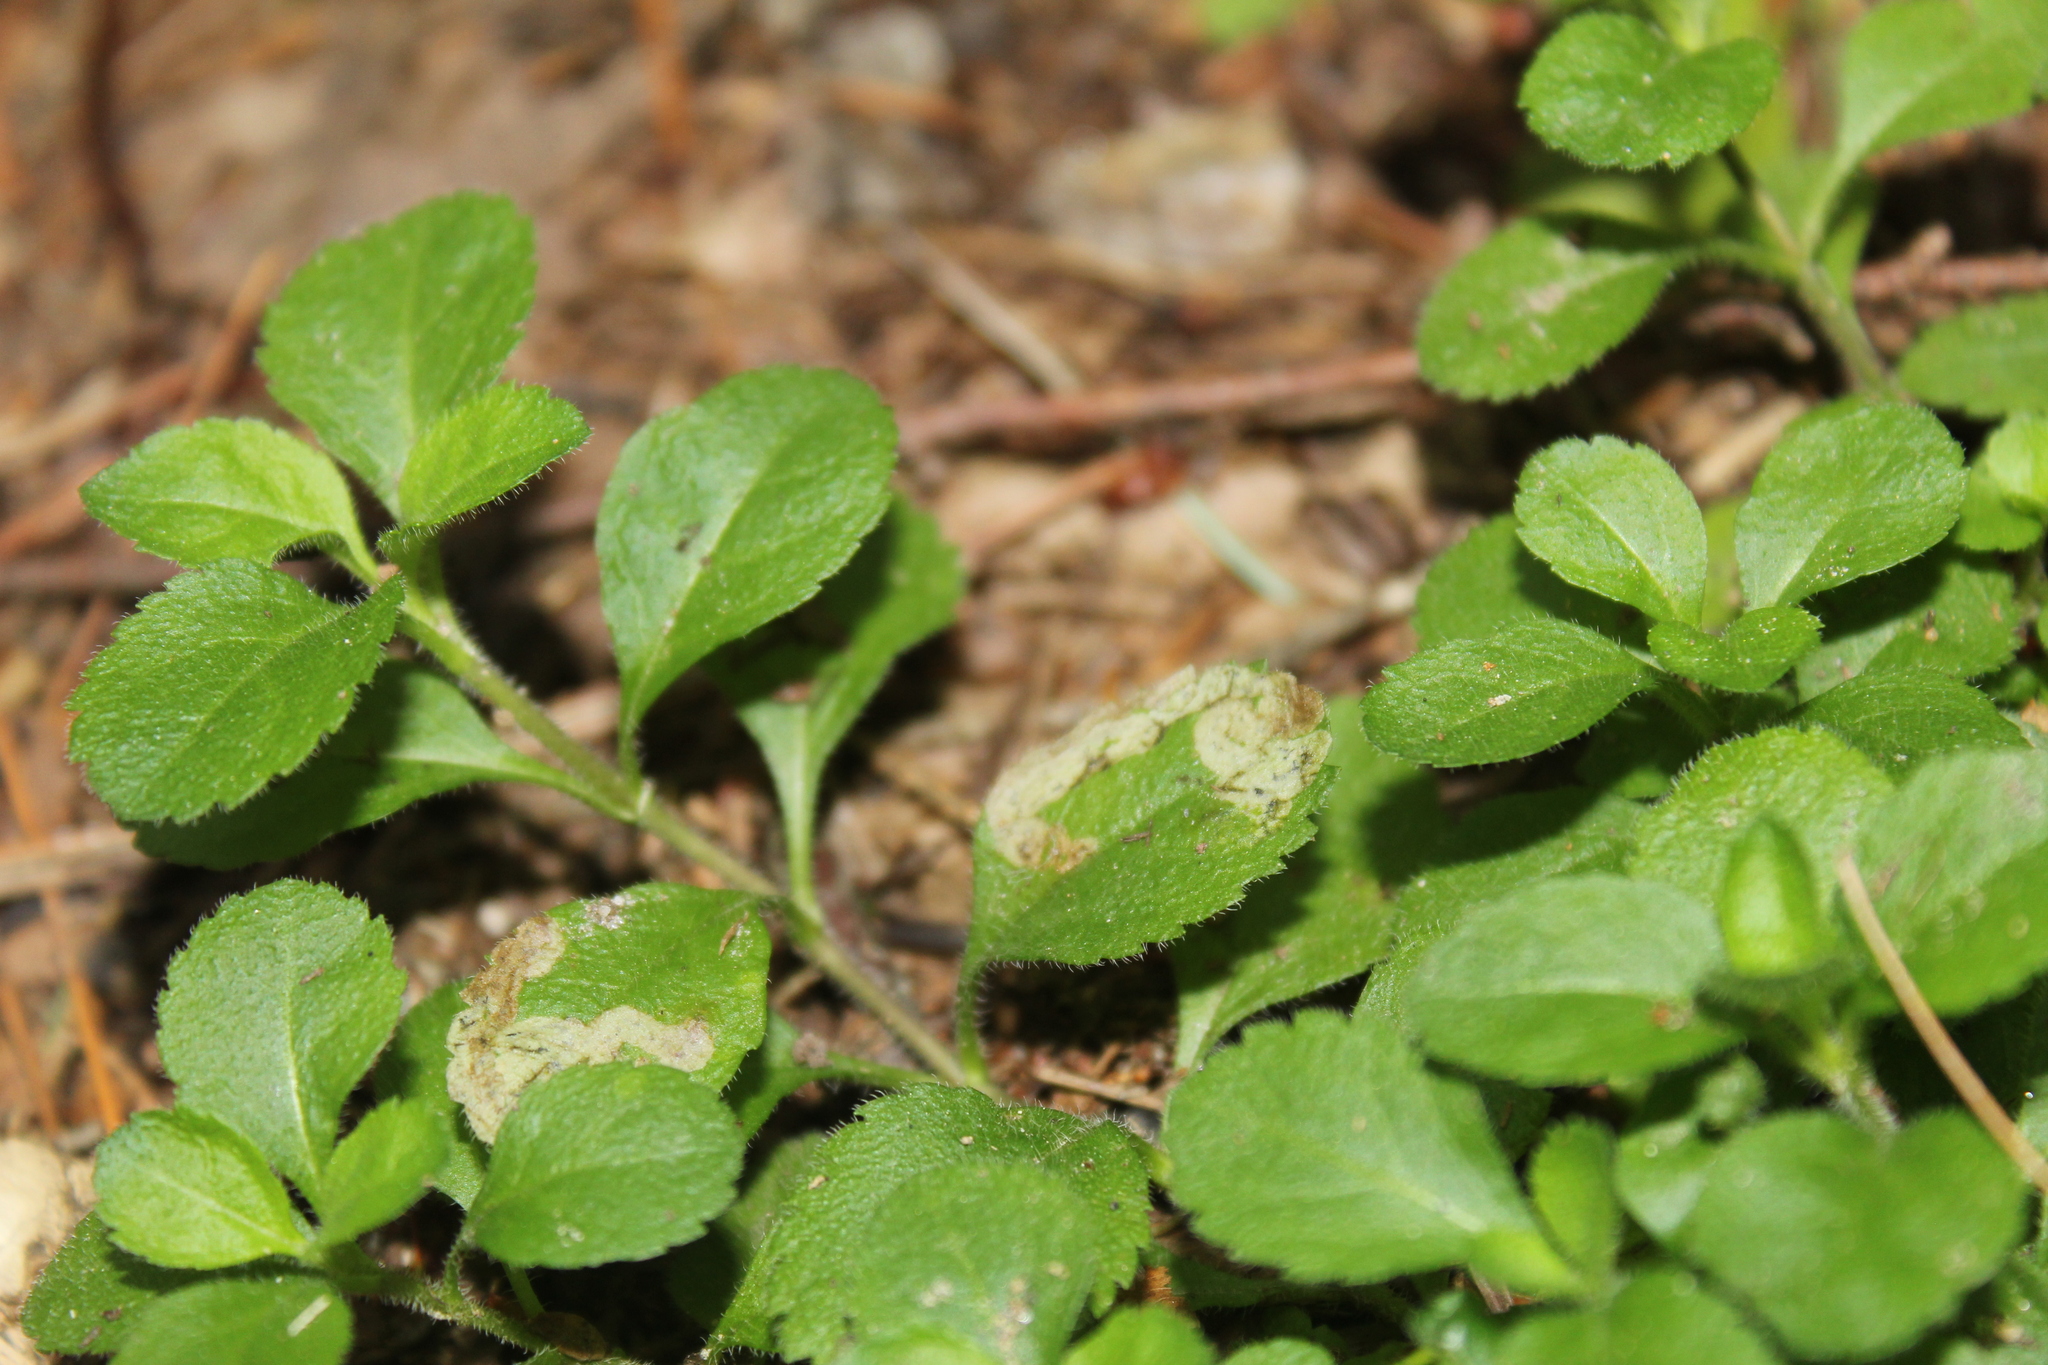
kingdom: Animalia
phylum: Arthropoda
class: Insecta
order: Diptera
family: Agromyzidae
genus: Phytomyza
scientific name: Phytomyza crassiseta
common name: Leaf-miner fly
